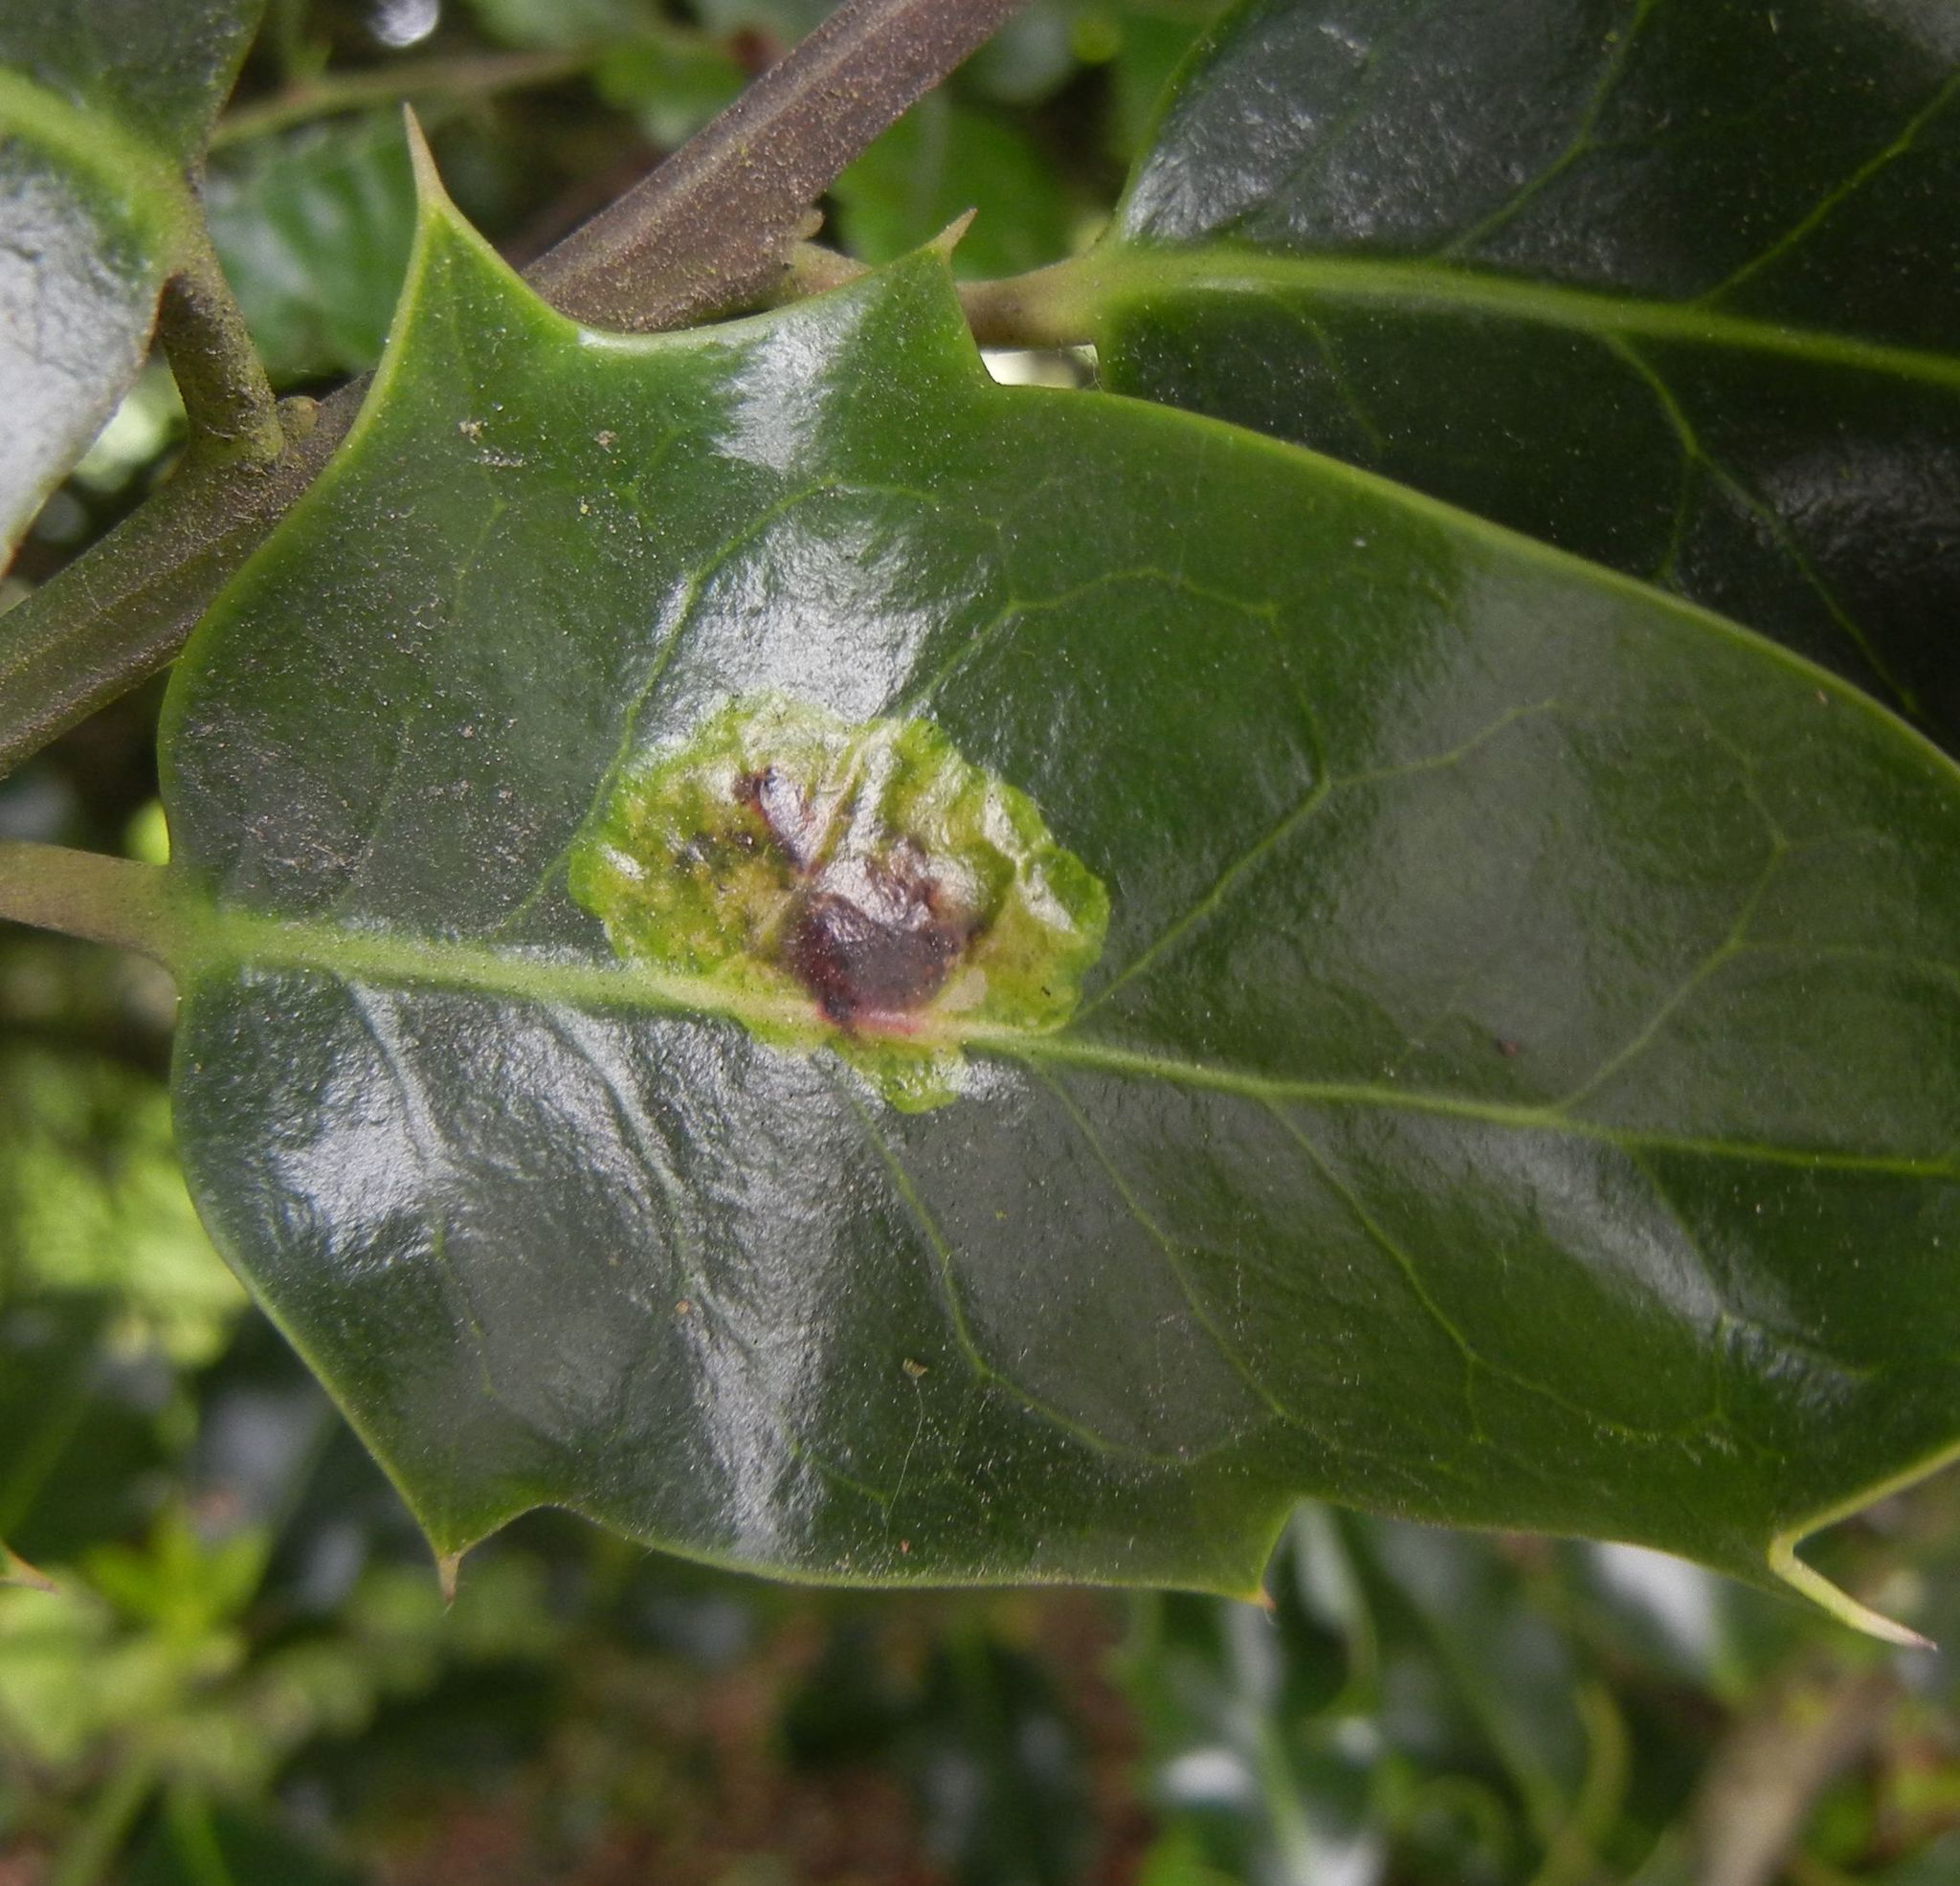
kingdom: Animalia
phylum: Arthropoda
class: Insecta
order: Diptera
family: Agromyzidae
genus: Phytomyza
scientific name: Phytomyza ilicis
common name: Holly leafminer
